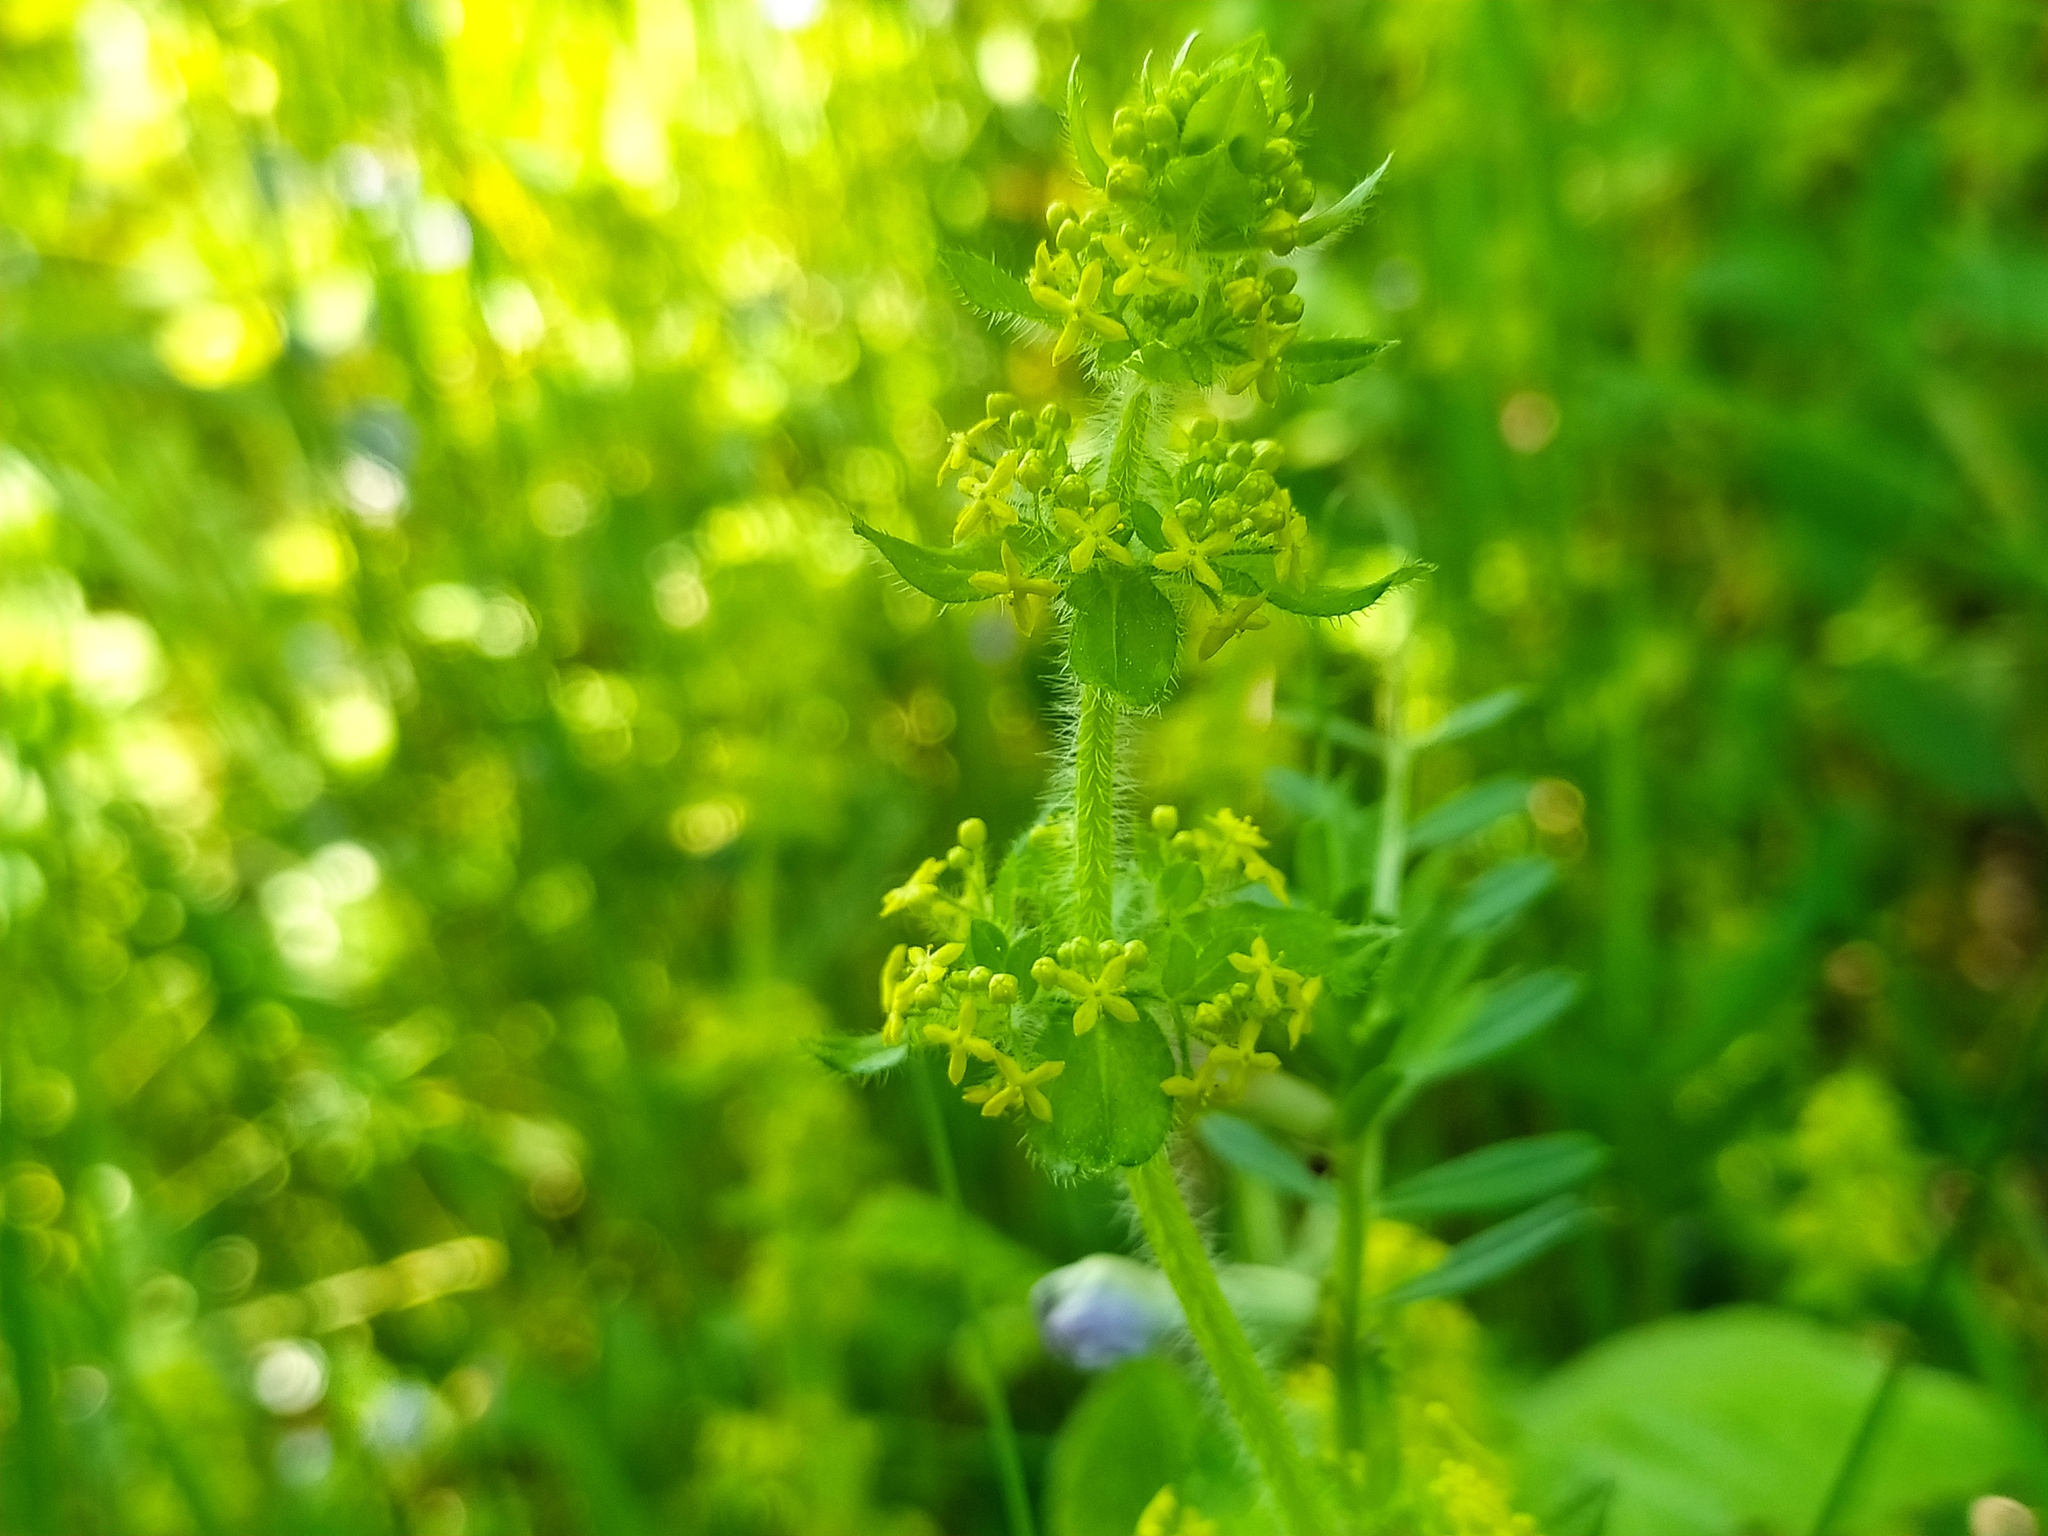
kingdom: Plantae
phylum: Tracheophyta
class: Magnoliopsida
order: Gentianales
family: Rubiaceae
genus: Cruciata
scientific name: Cruciata laevipes
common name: Crosswort
